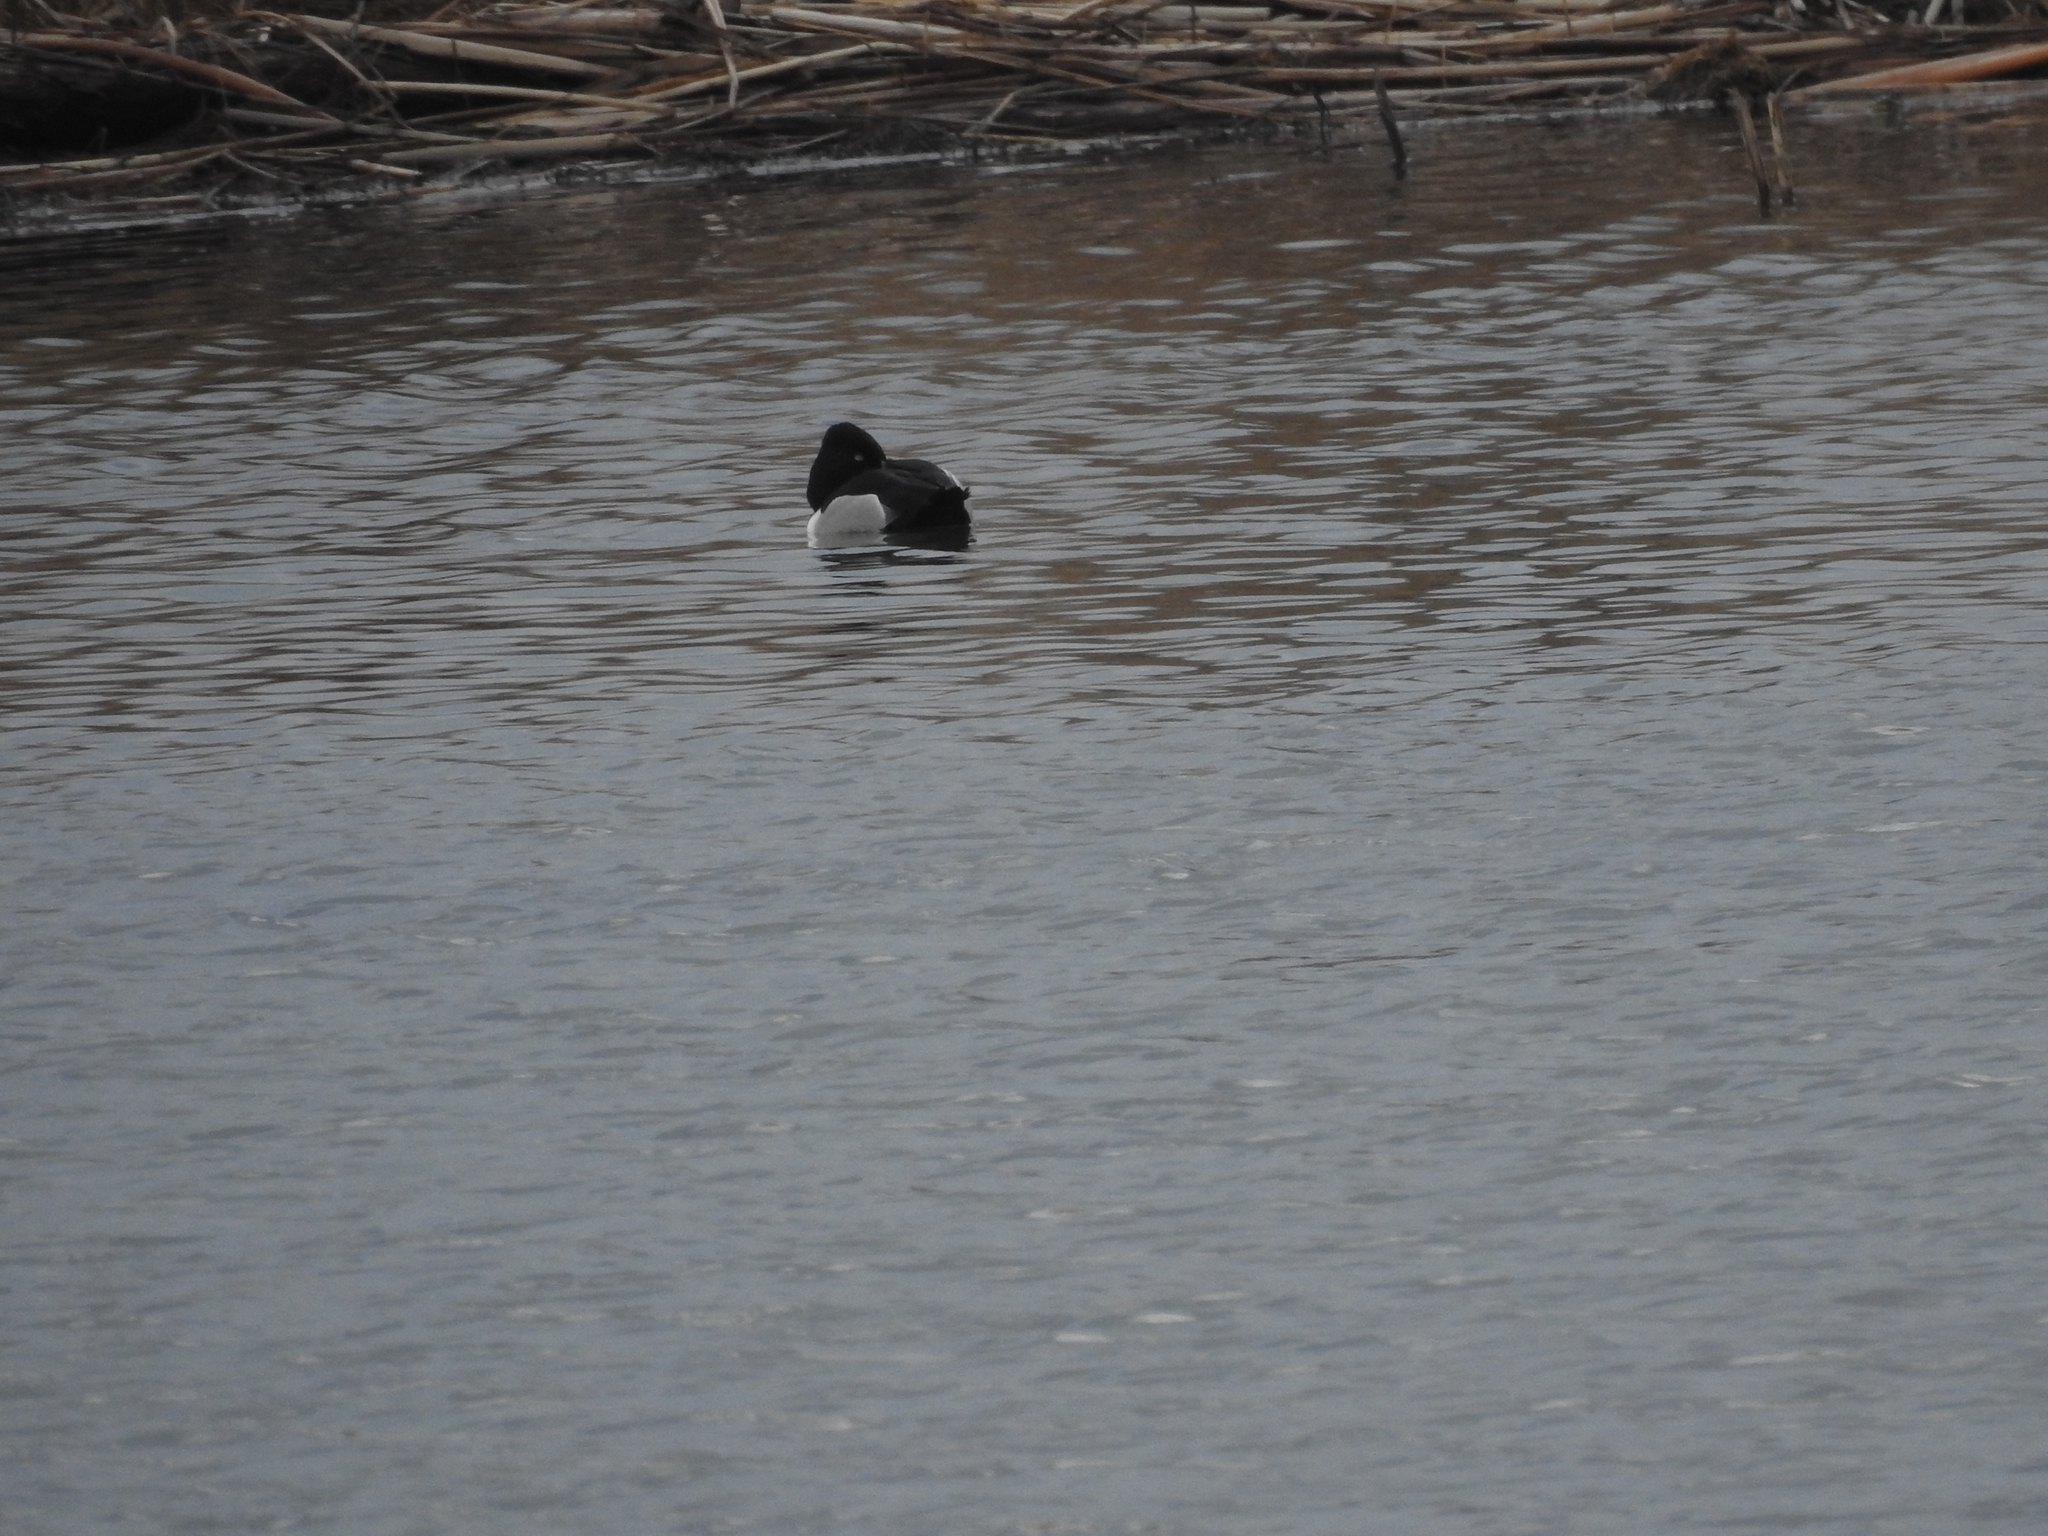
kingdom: Animalia
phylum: Chordata
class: Aves
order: Anseriformes
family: Anatidae
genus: Aythya
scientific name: Aythya collaris
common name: Ring-necked duck
